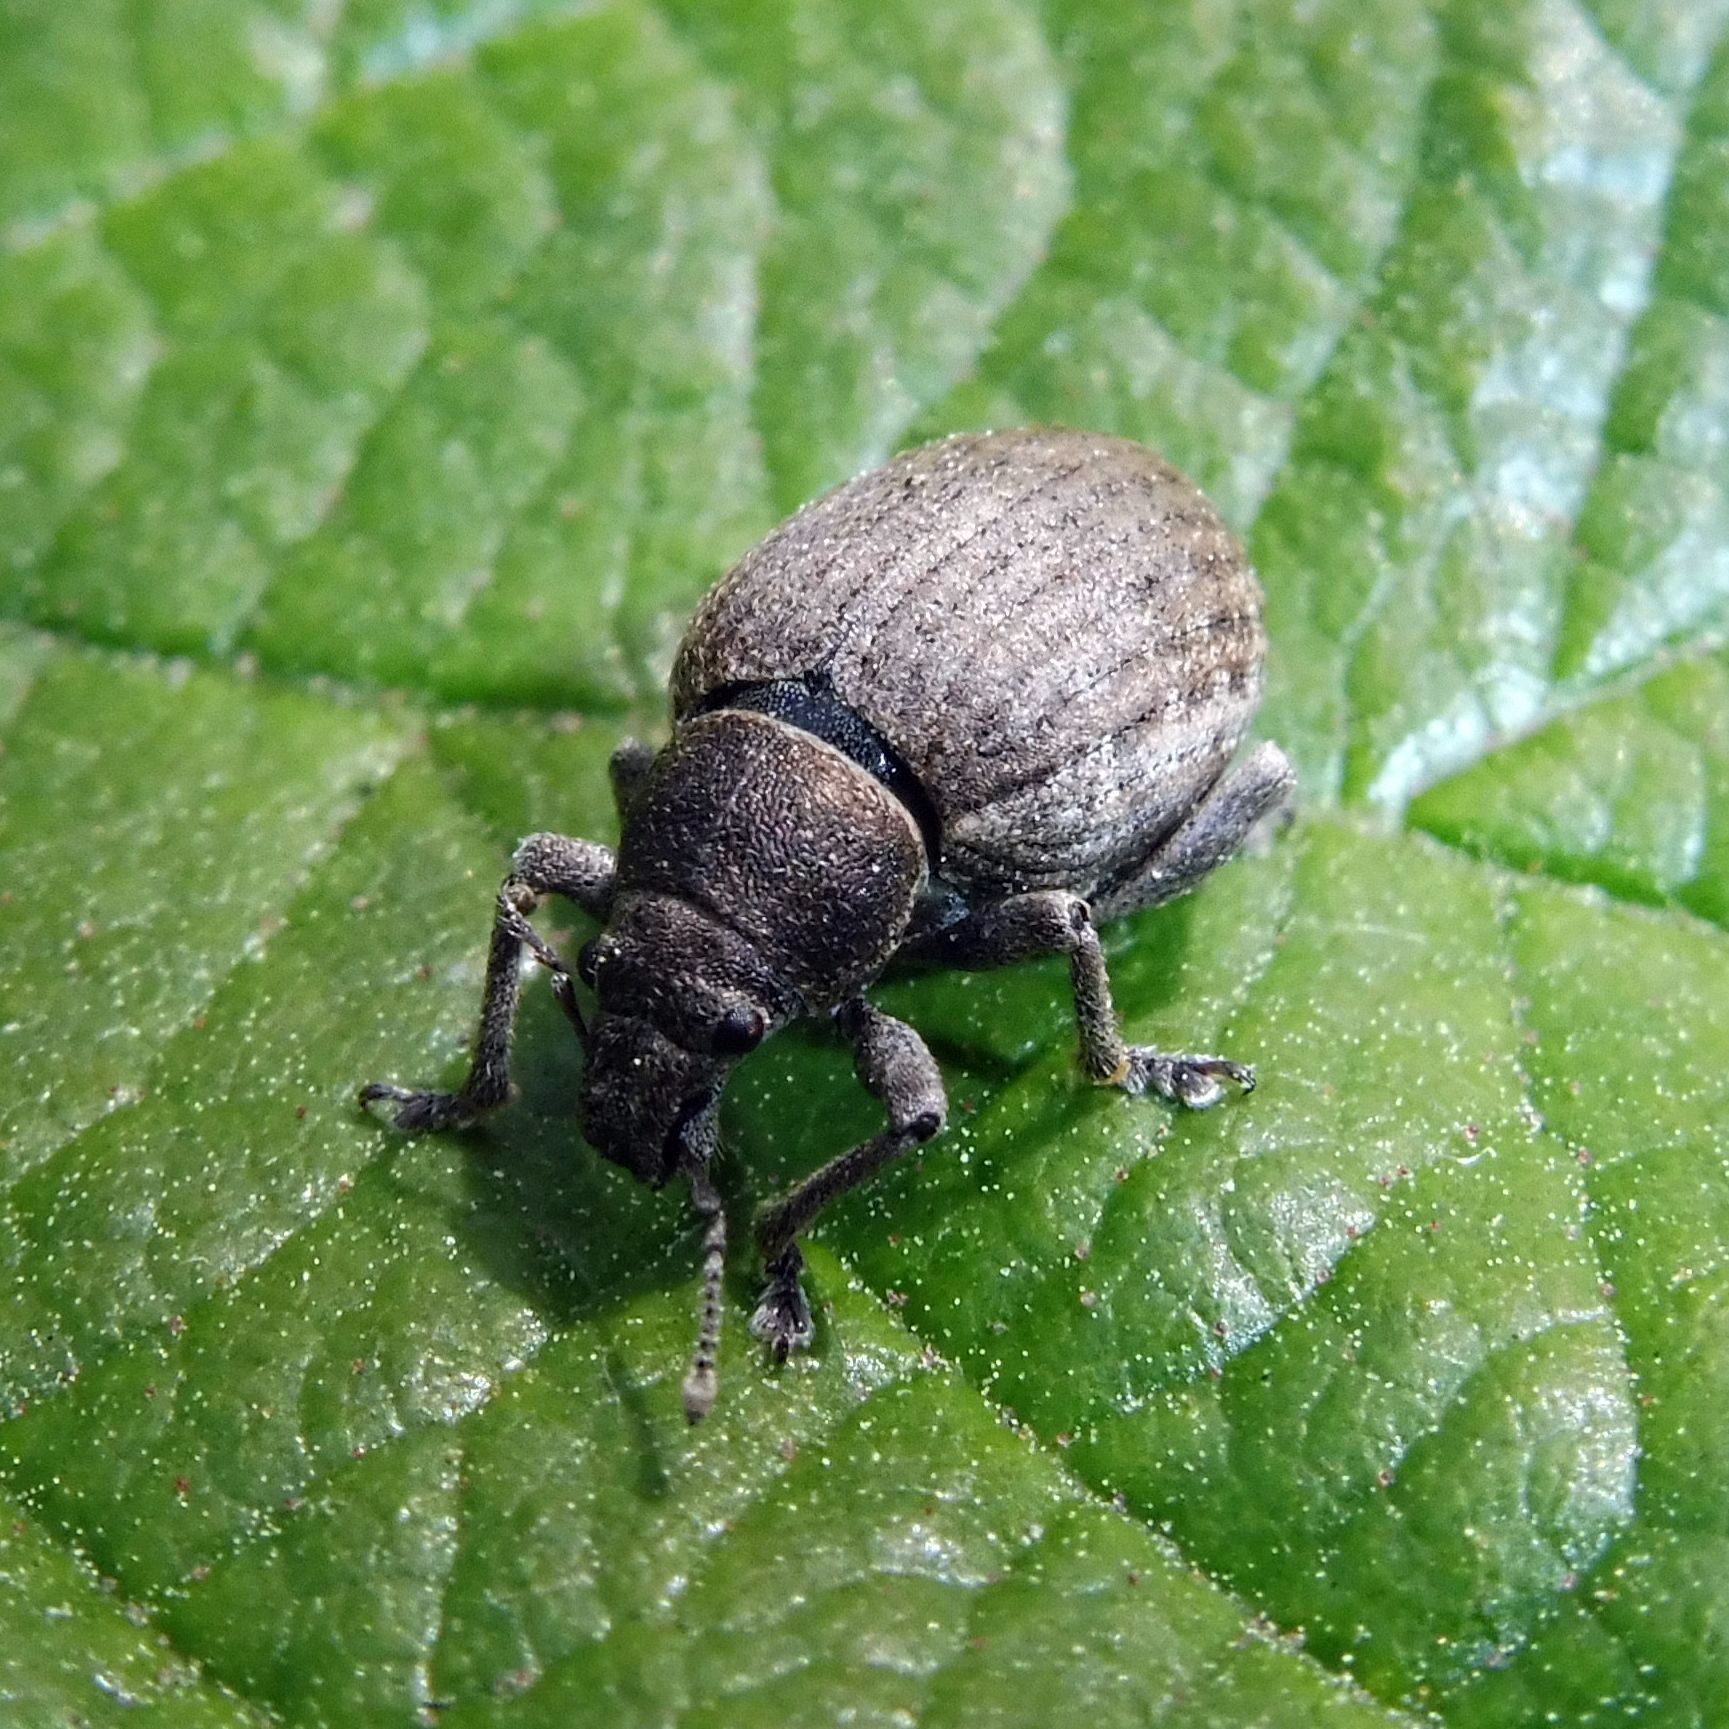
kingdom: Animalia
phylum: Arthropoda
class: Insecta
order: Coleoptera
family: Curculionidae
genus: Attactagenus
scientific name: Attactagenus plumbeus
